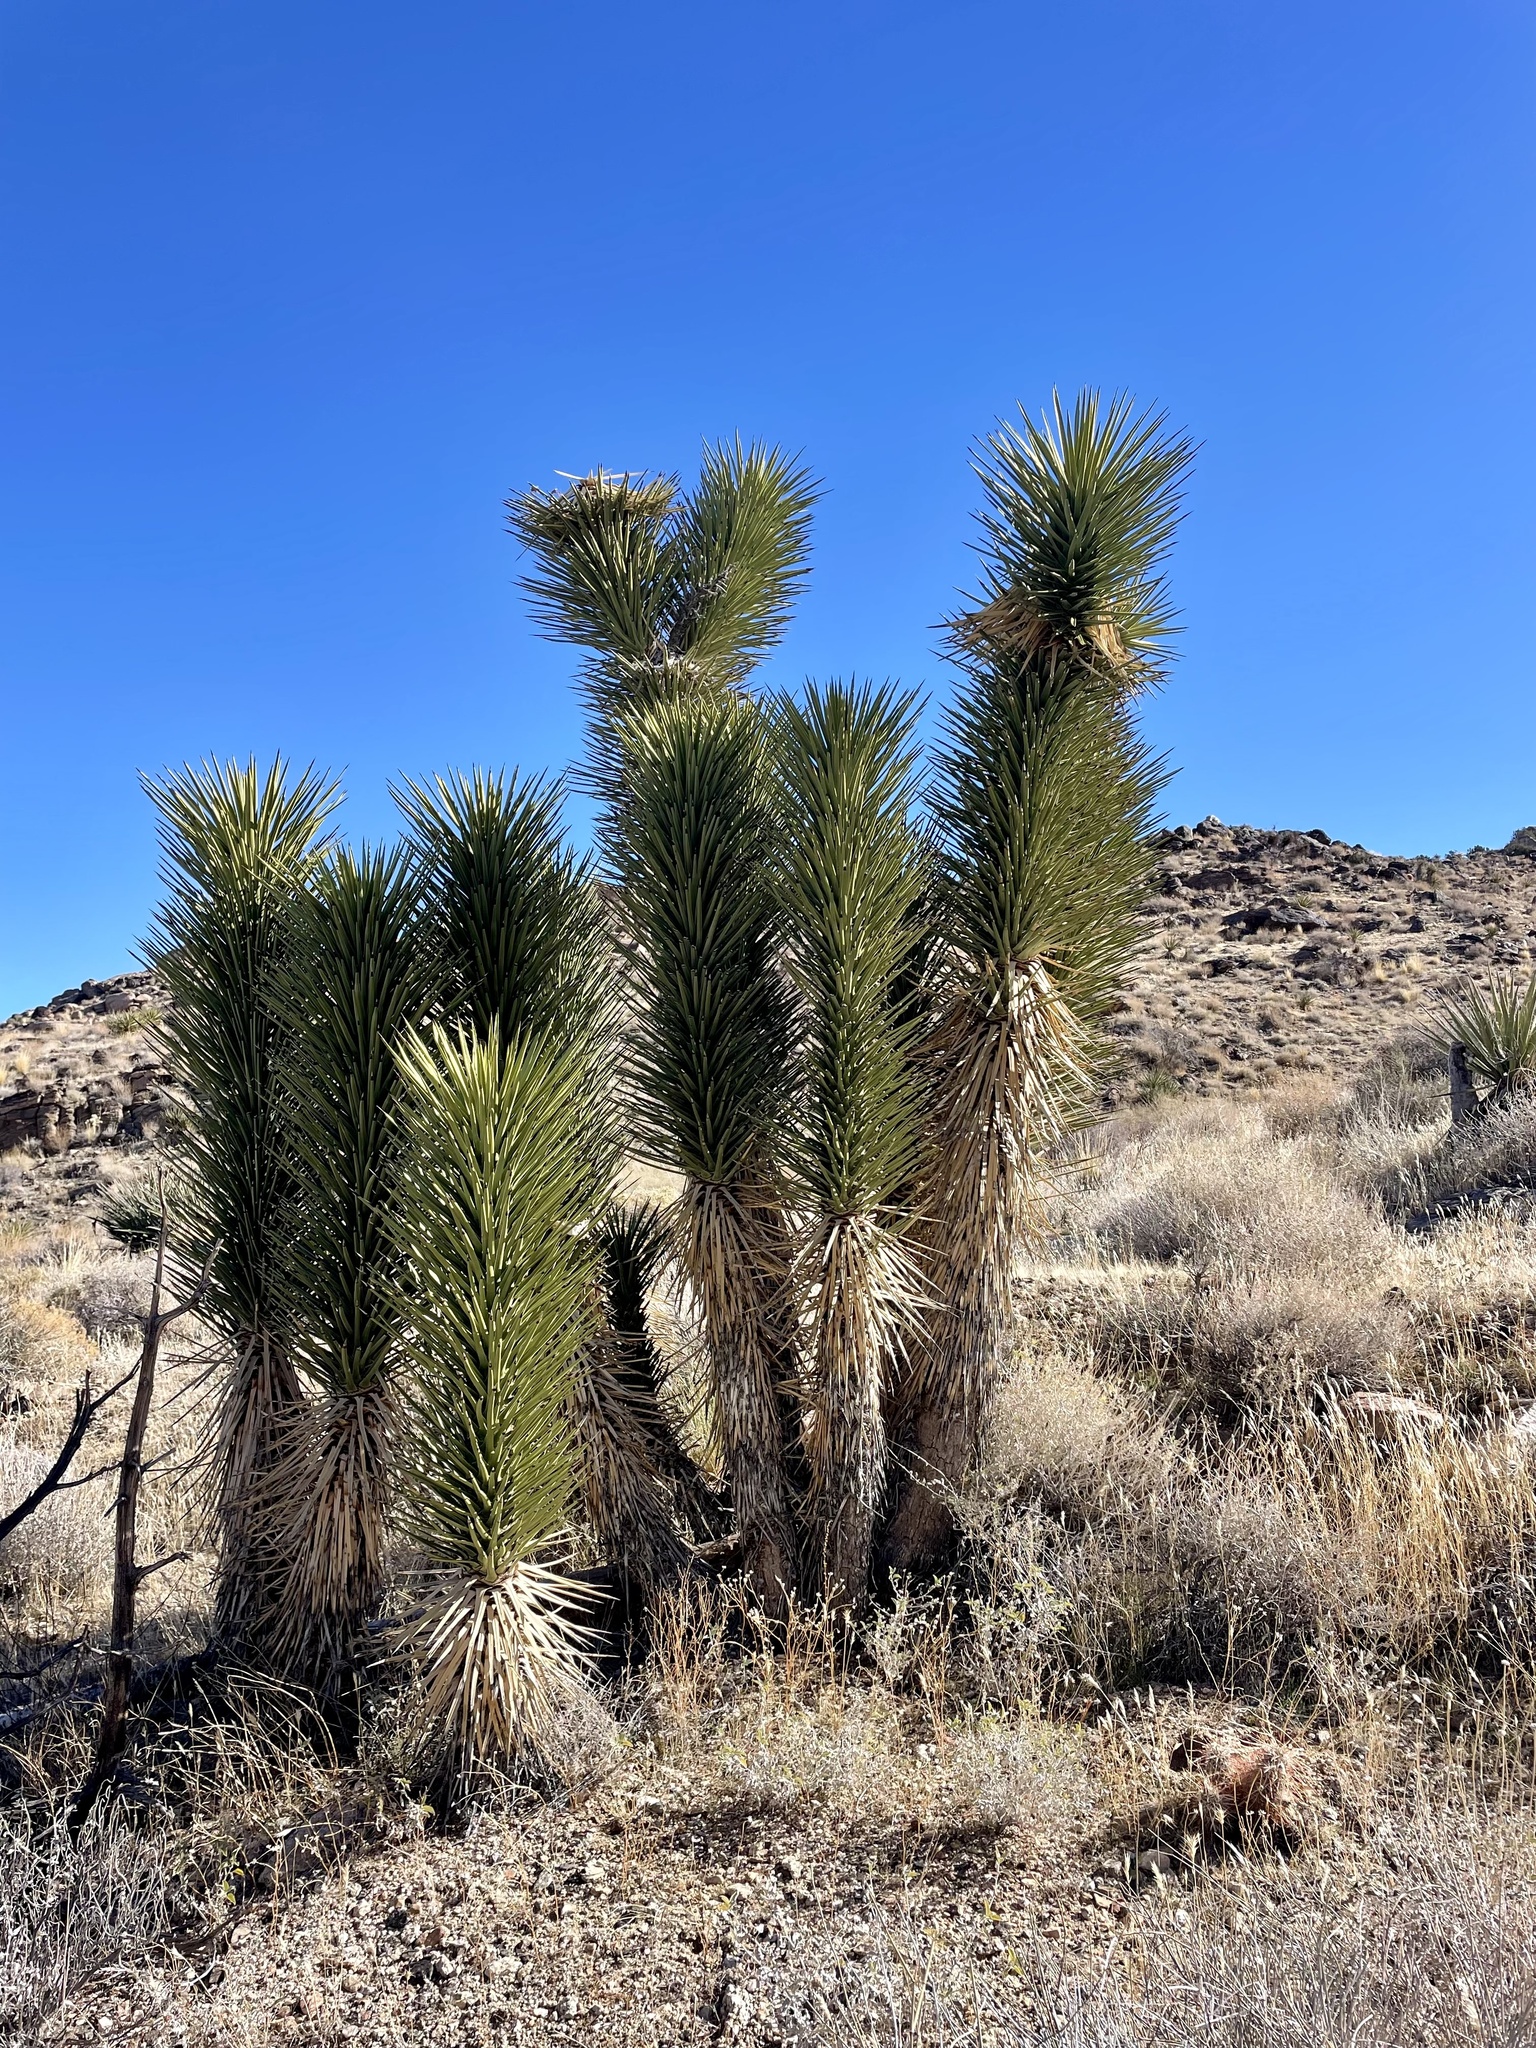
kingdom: Plantae
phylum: Tracheophyta
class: Liliopsida
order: Asparagales
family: Asparagaceae
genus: Yucca
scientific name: Yucca brevifolia
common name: Joshua tree
